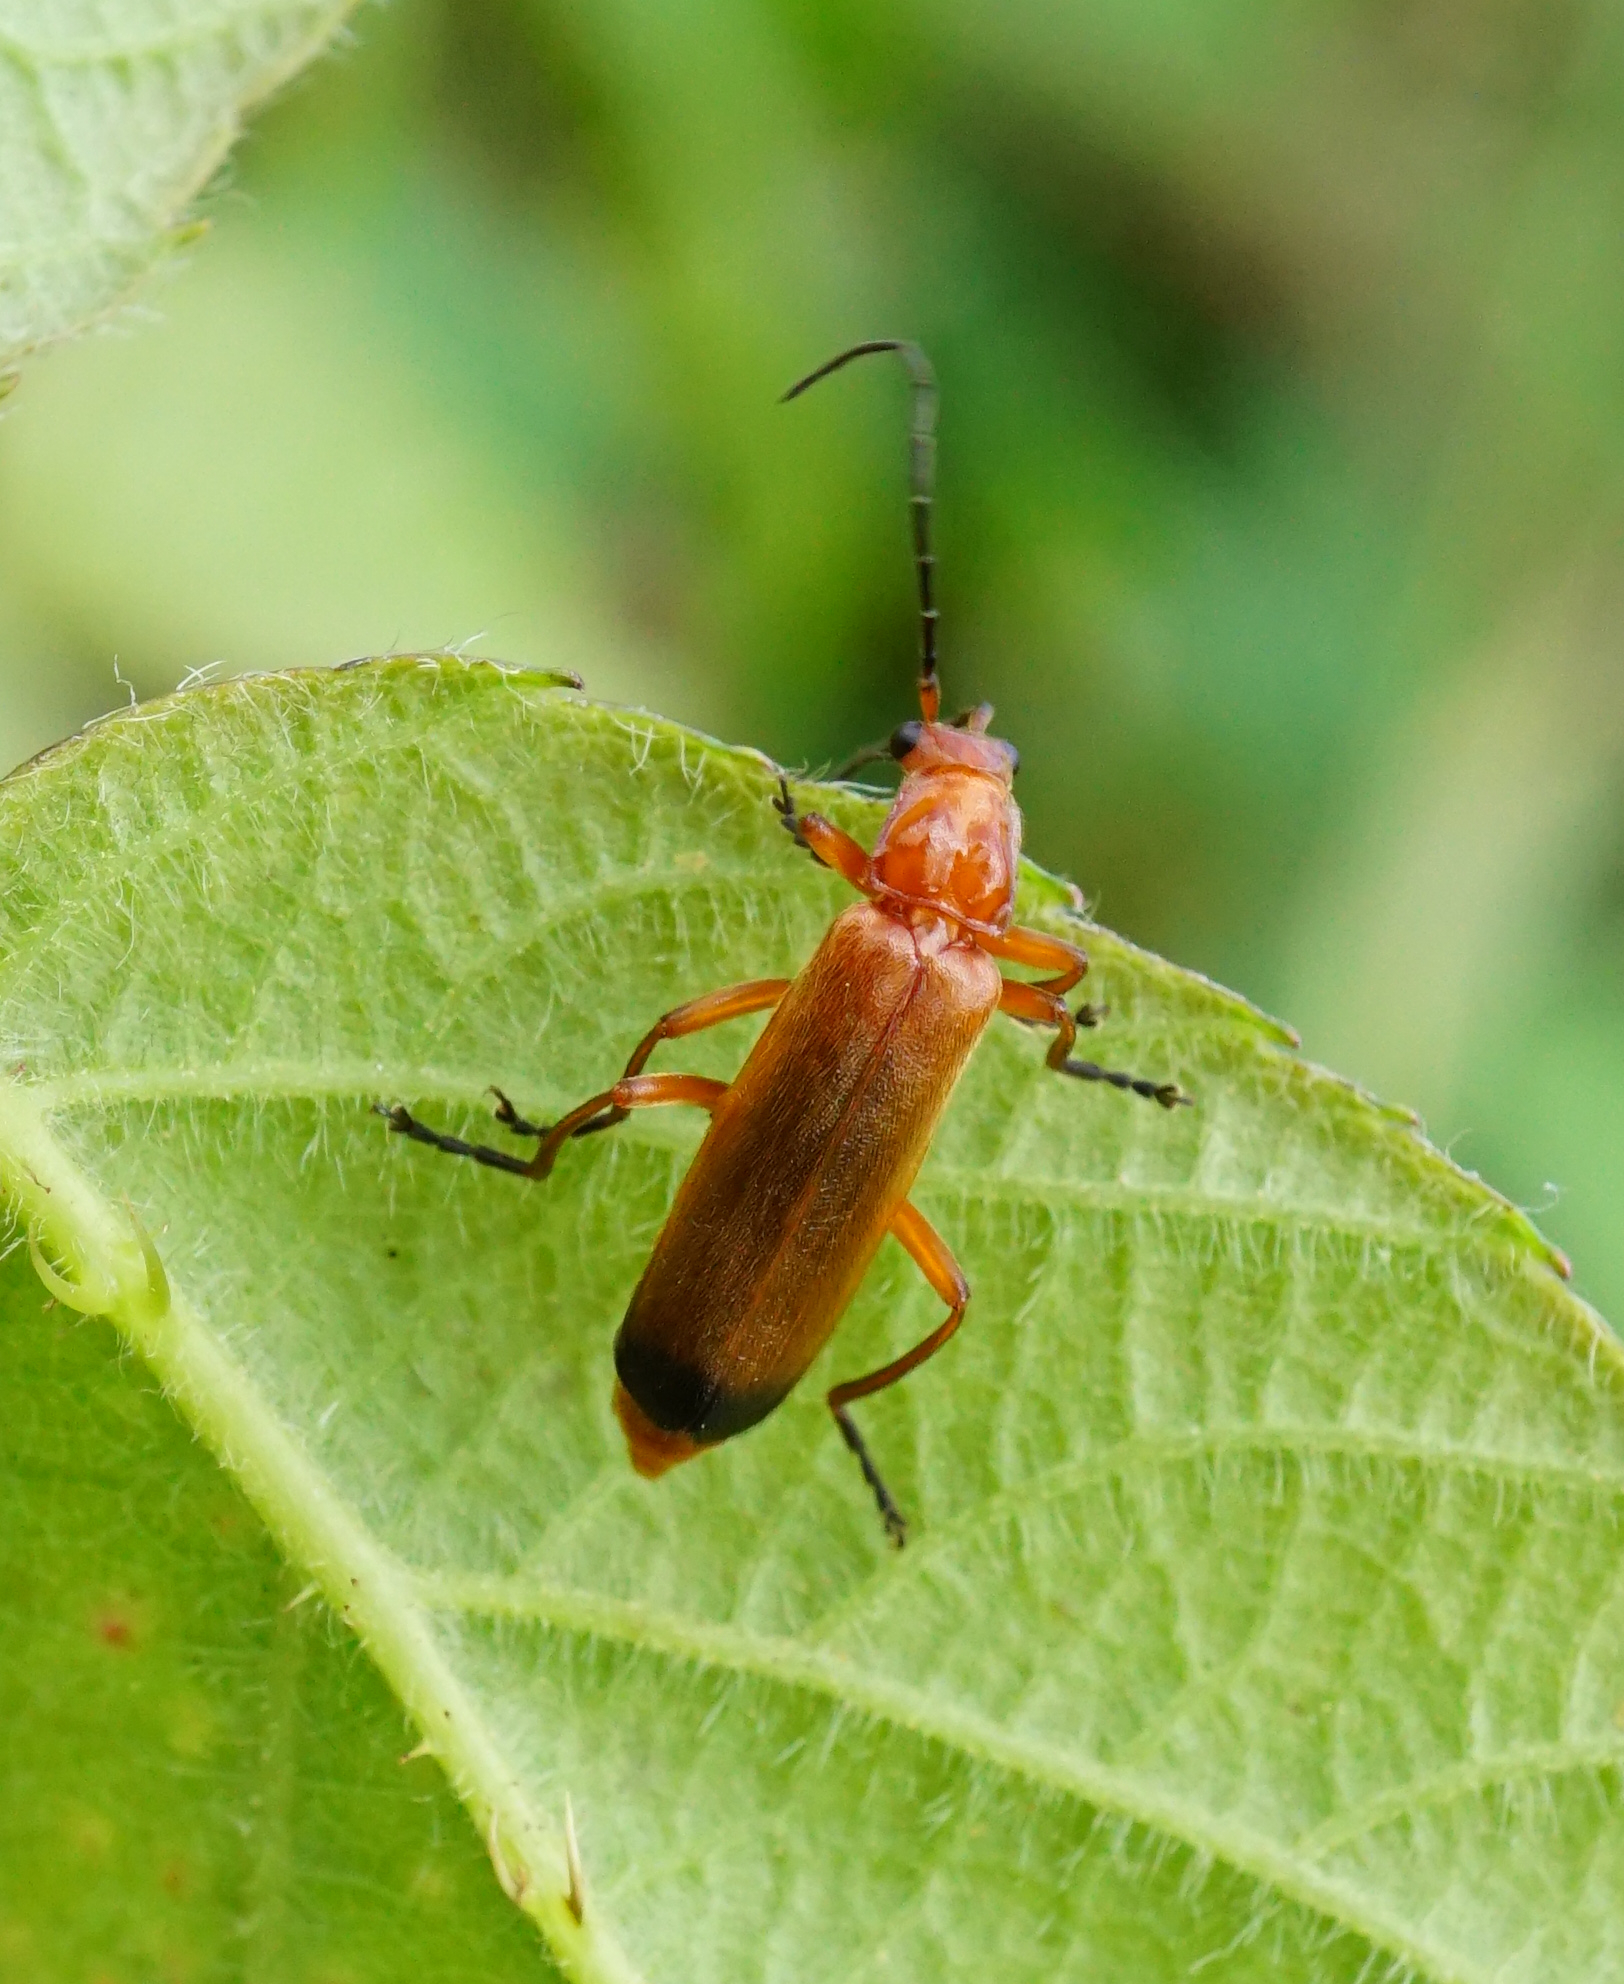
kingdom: Animalia
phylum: Arthropoda
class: Insecta
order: Coleoptera
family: Cantharidae
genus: Rhagonycha
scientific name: Rhagonycha fulva
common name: Common red soldier beetle
